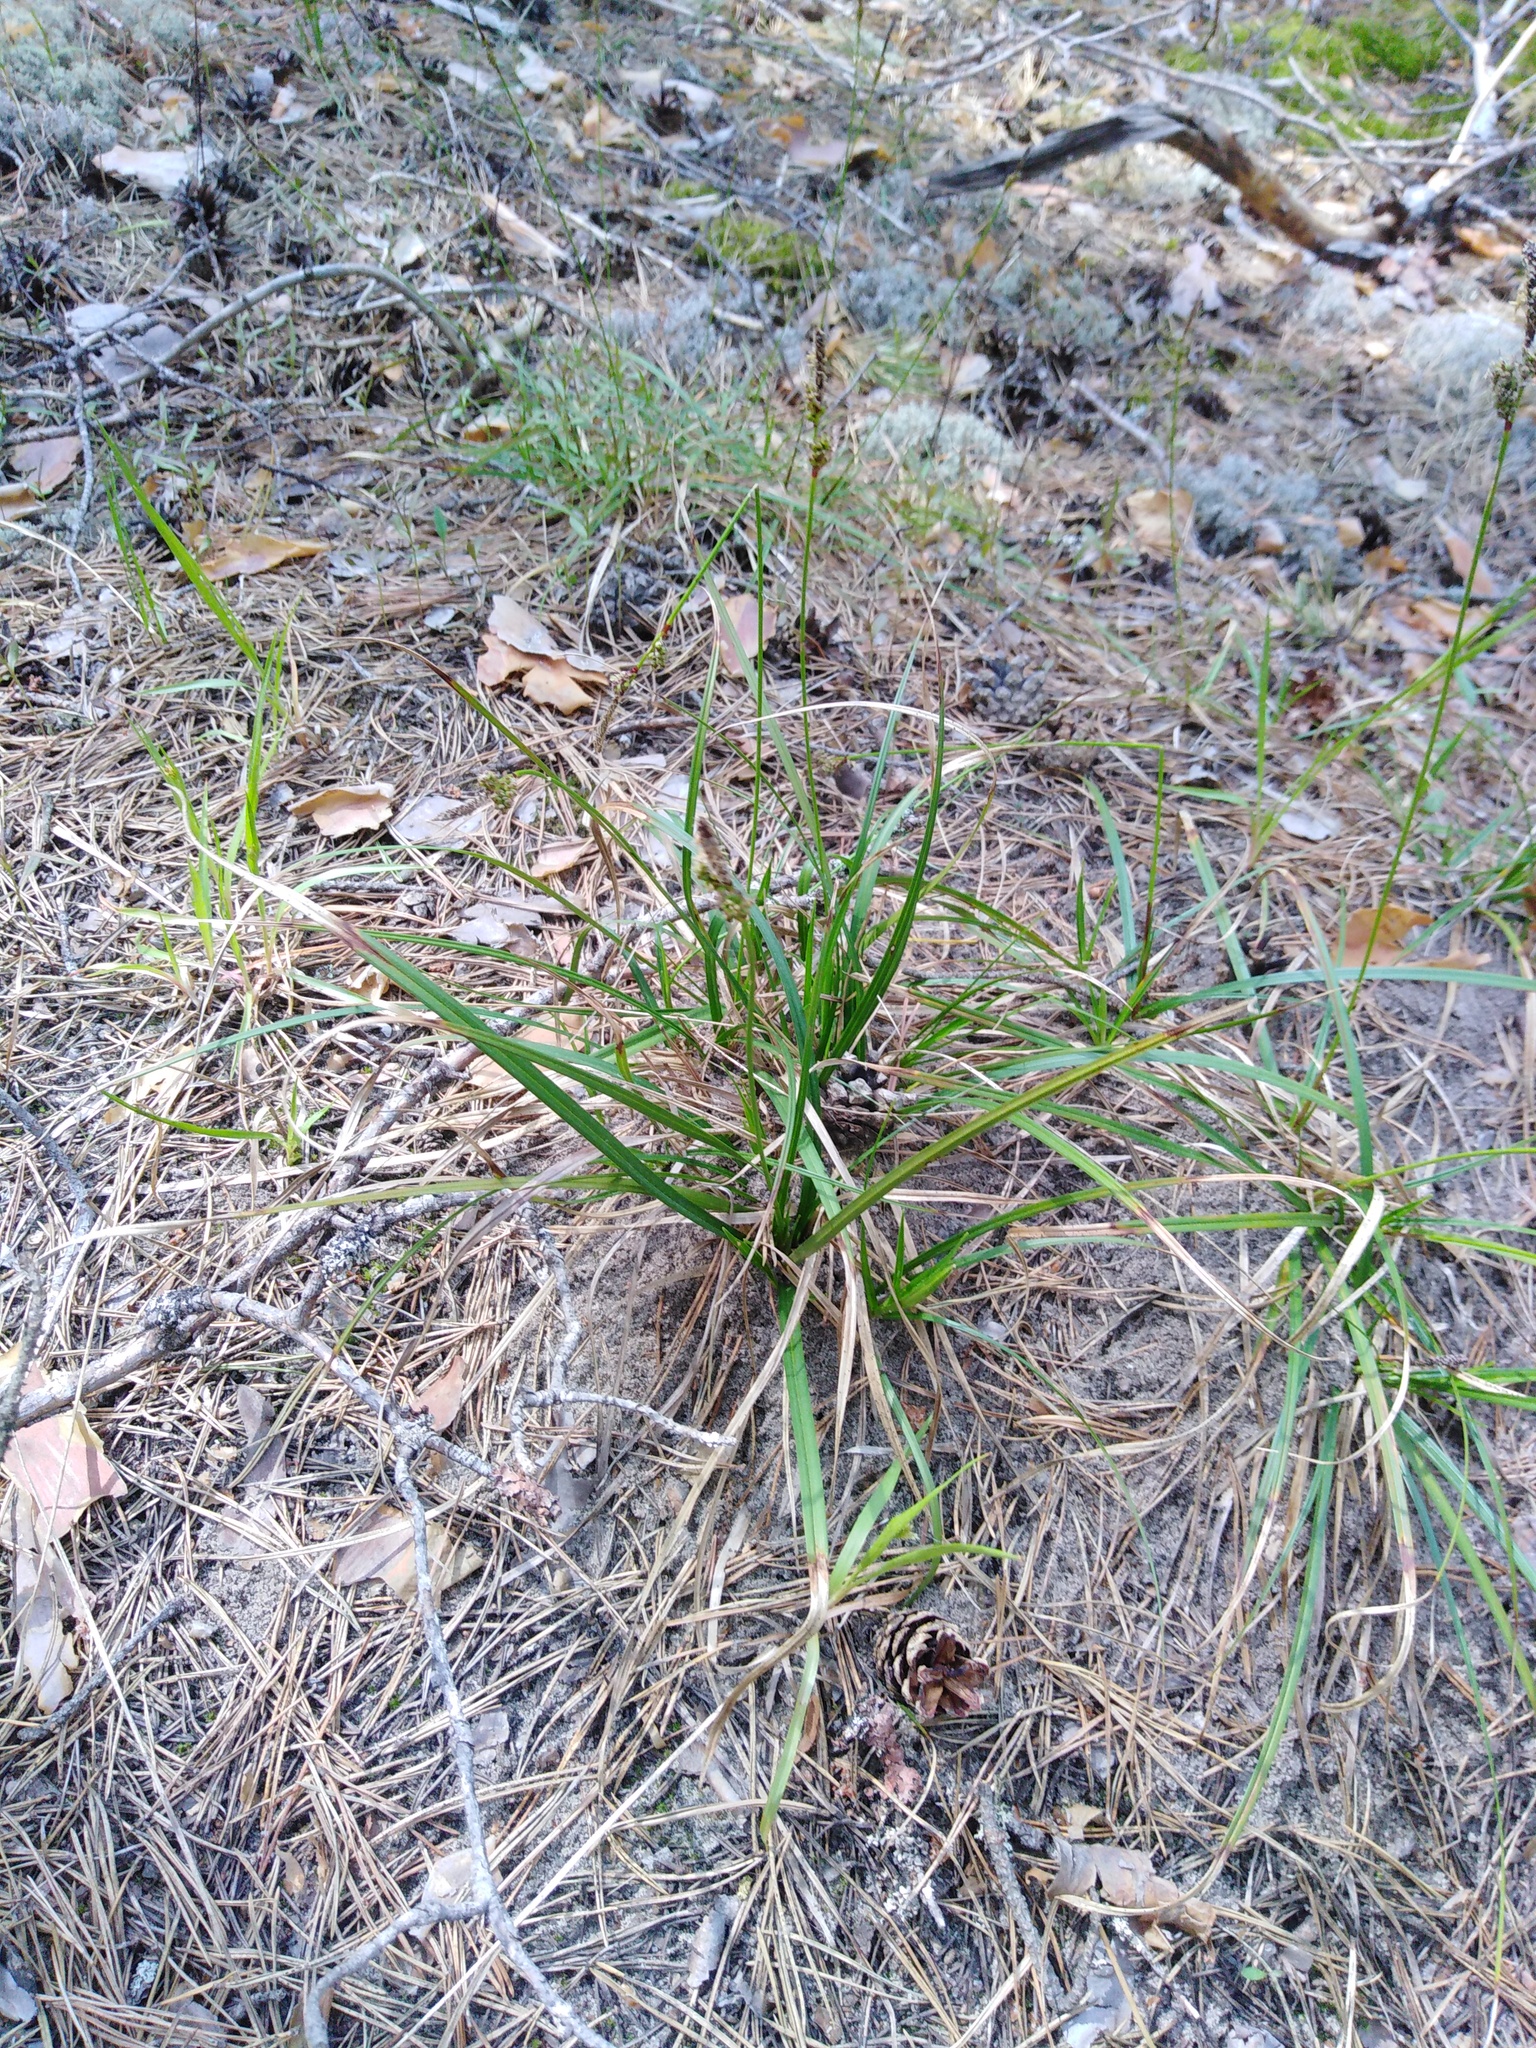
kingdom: Plantae
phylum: Tracheophyta
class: Liliopsida
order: Poales
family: Cyperaceae
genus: Carex
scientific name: Carex ericetorum
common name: Rare spring-sedge
